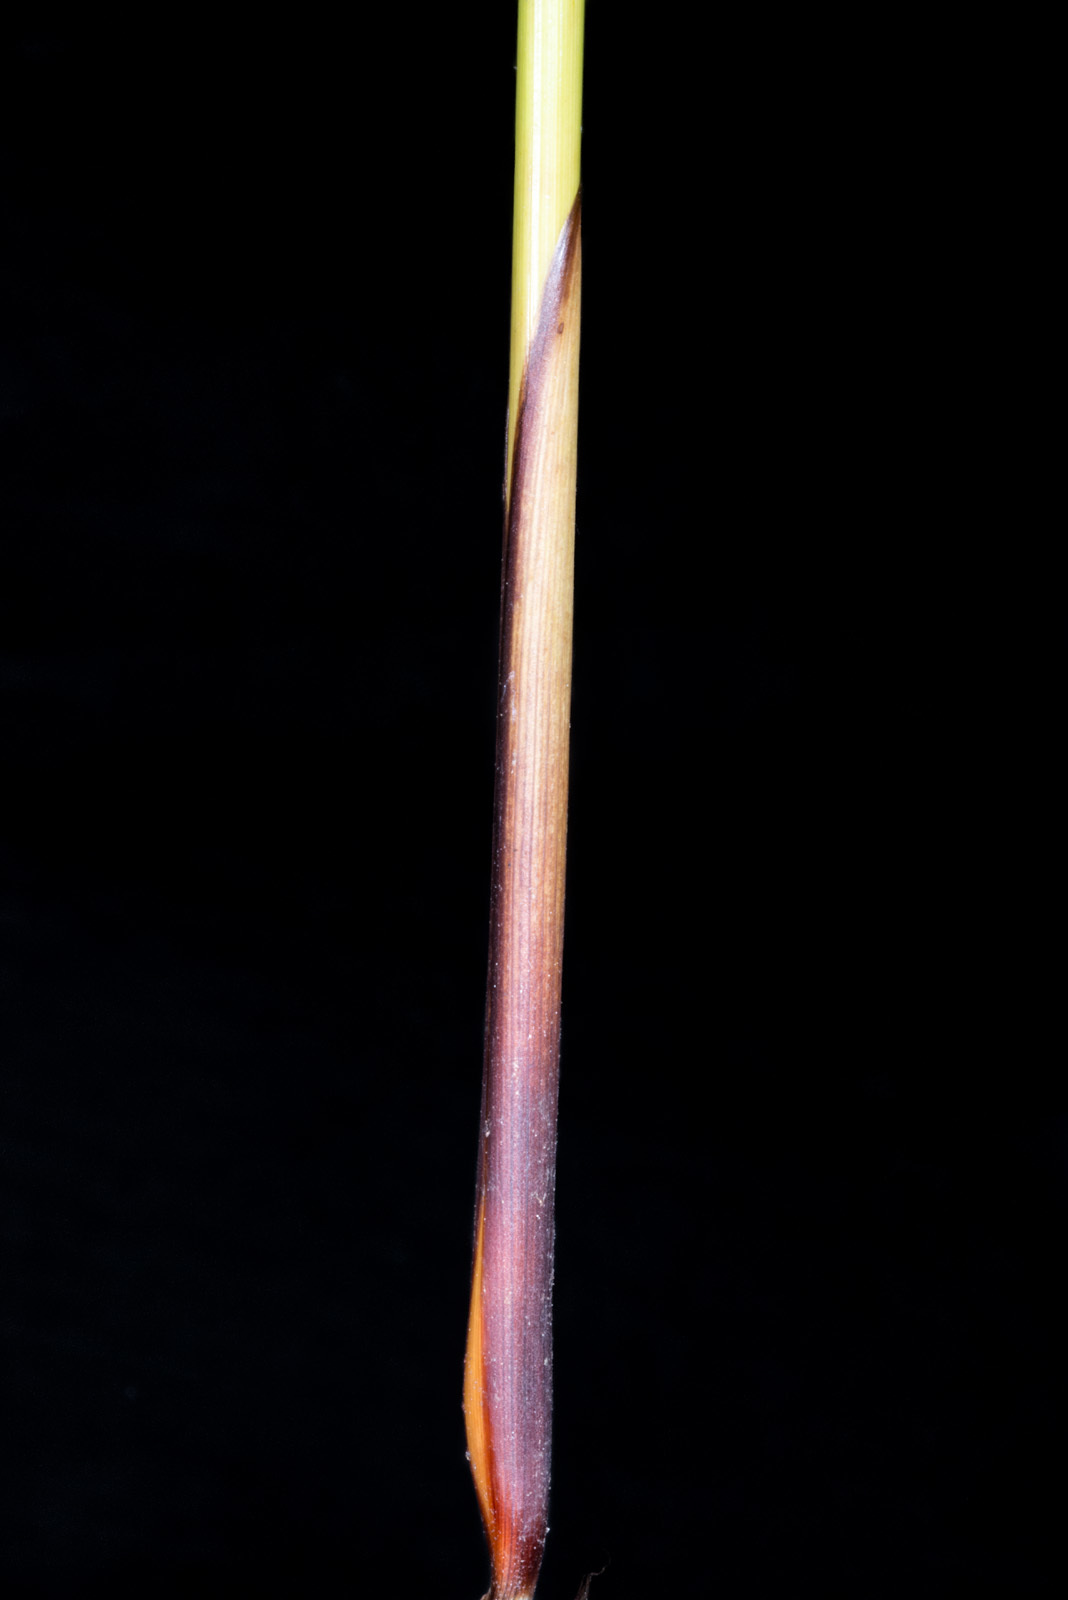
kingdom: Plantae
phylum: Tracheophyta
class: Liliopsida
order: Poales
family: Juncaceae
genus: Juncus
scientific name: Juncus effusus
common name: Soft rush
